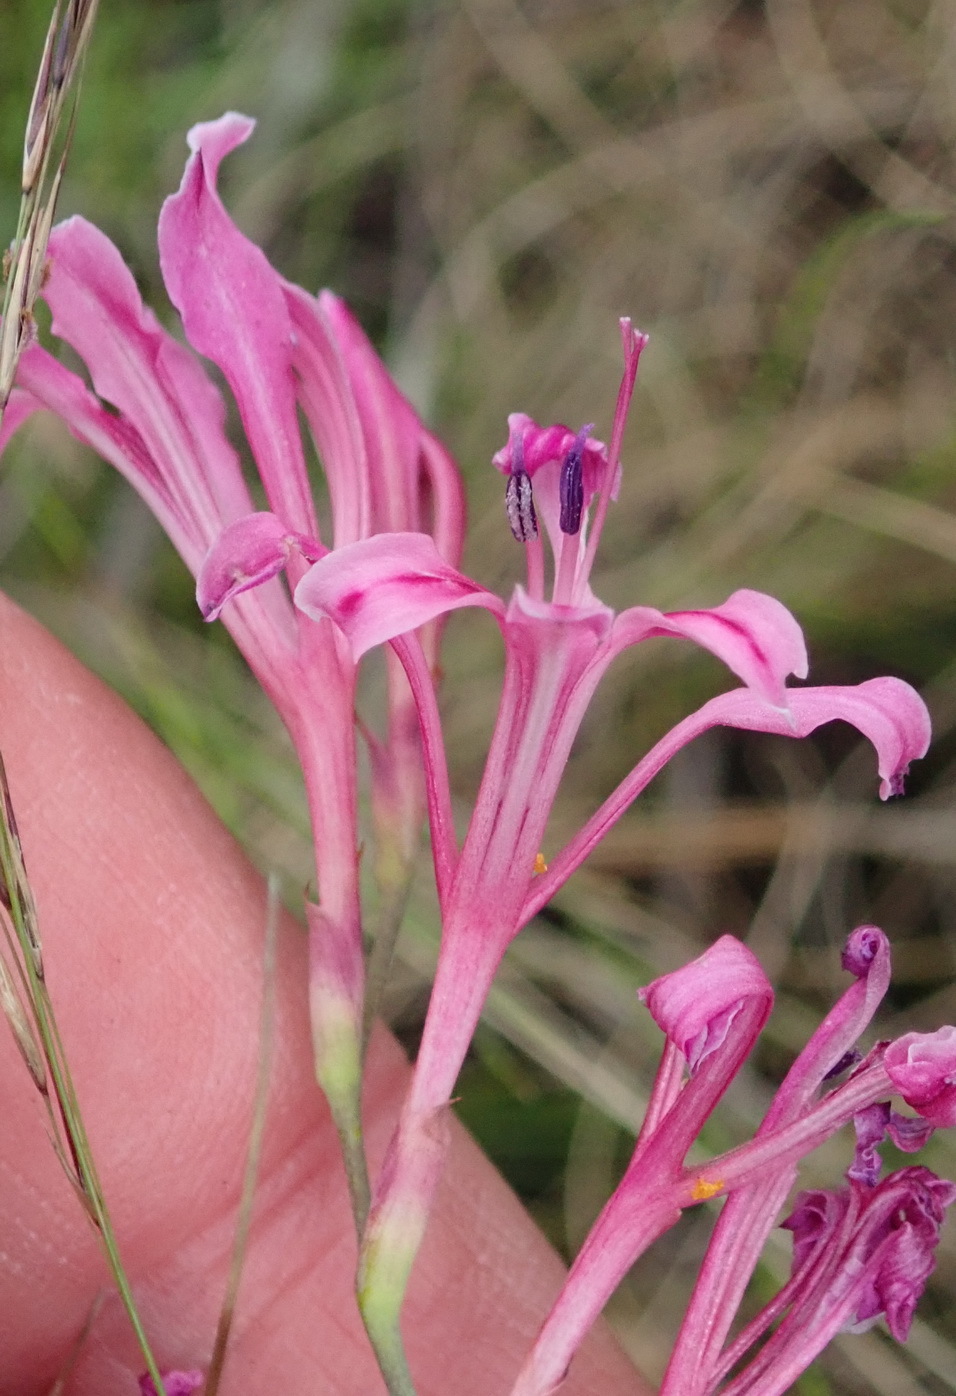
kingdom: Plantae
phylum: Tracheophyta
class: Liliopsida
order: Asparagales
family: Iridaceae
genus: Tritoniopsis
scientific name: Tritoniopsis lata
